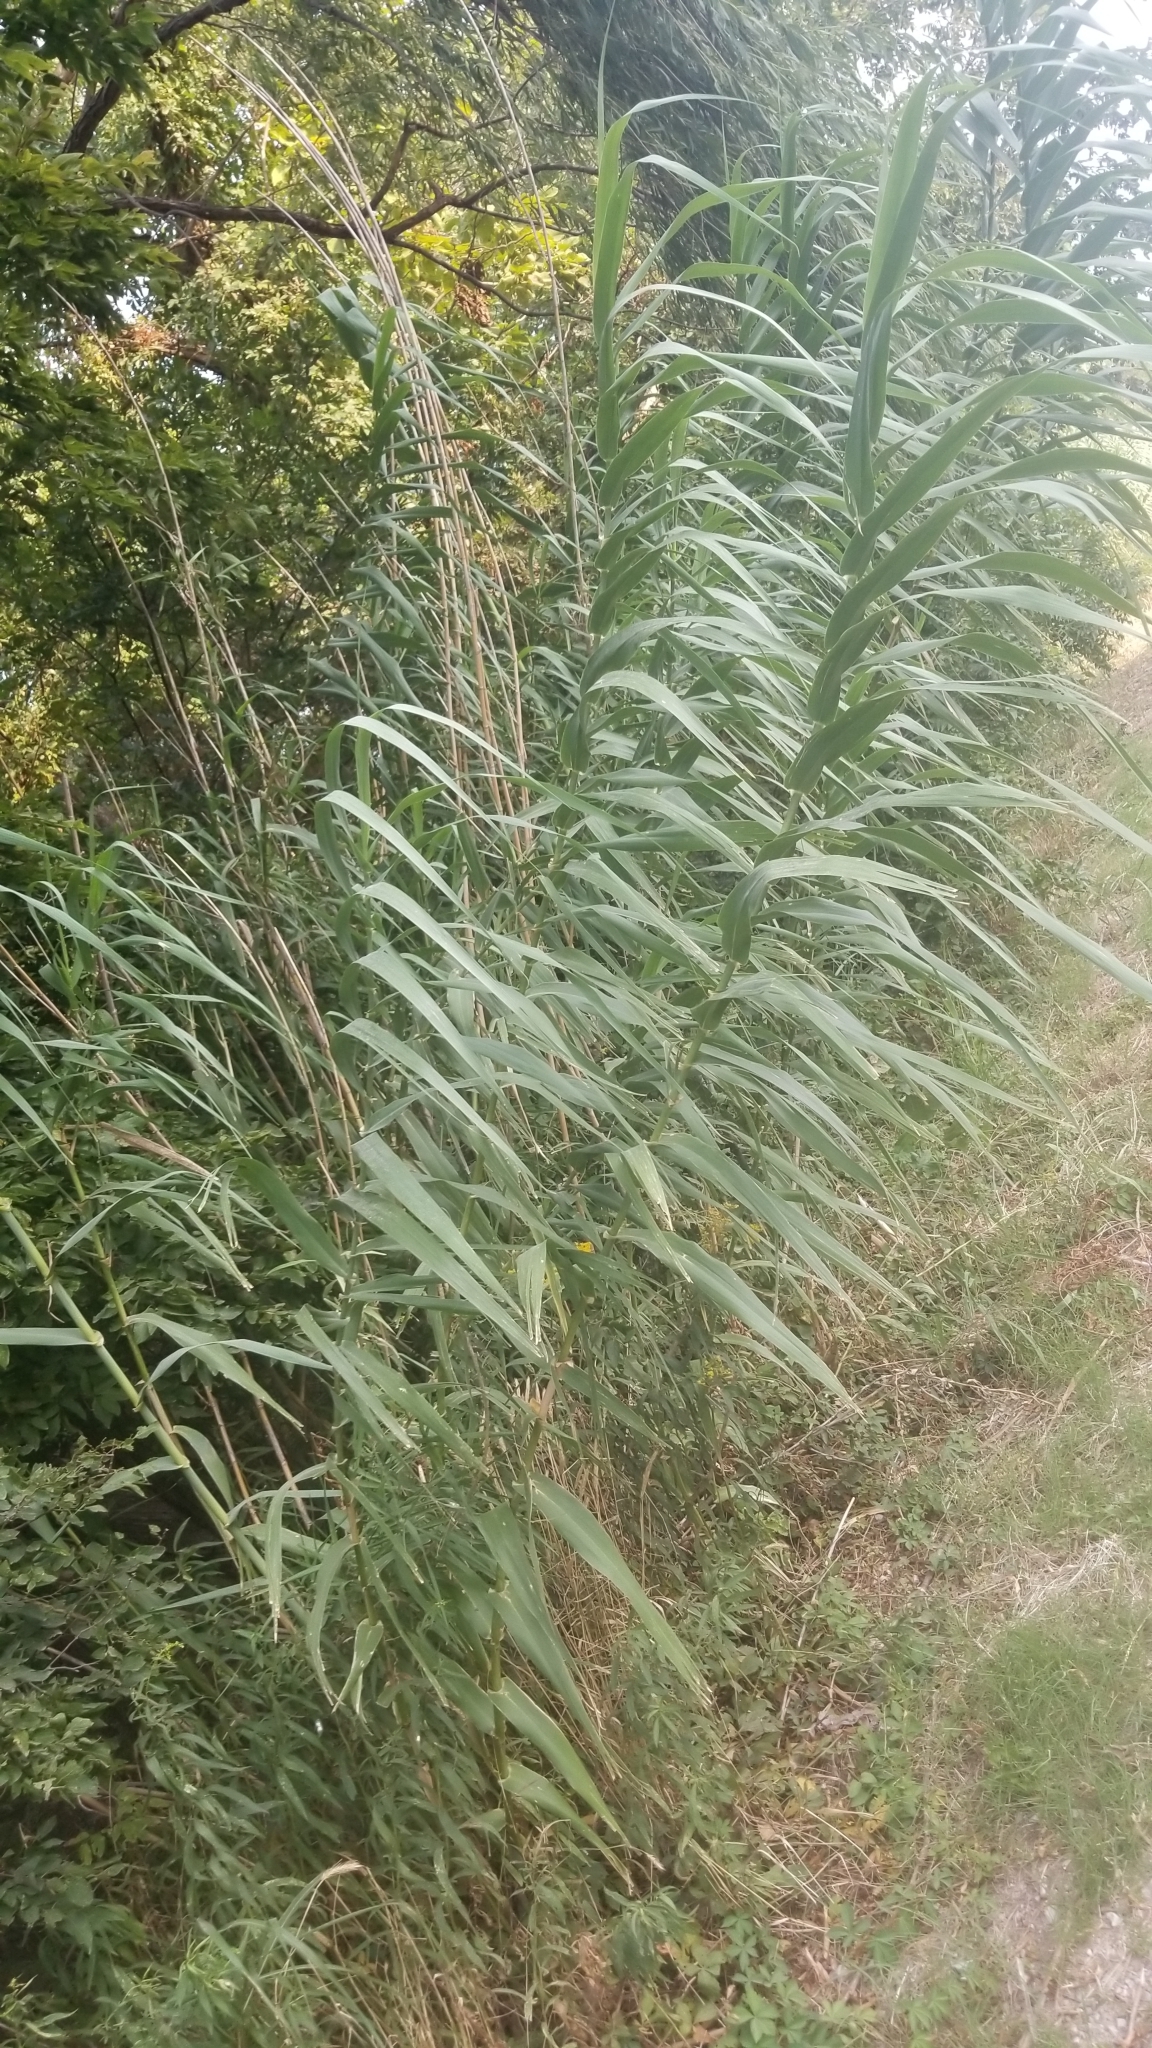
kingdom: Plantae
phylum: Tracheophyta
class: Liliopsida
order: Poales
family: Poaceae
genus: Arundo
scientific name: Arundo donax
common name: Giant reed
